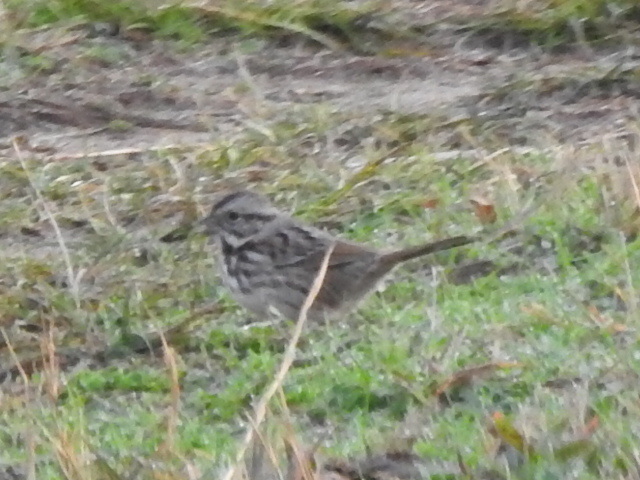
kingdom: Animalia
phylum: Chordata
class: Aves
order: Passeriformes
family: Passerellidae
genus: Melospiza
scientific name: Melospiza melodia
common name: Song sparrow
